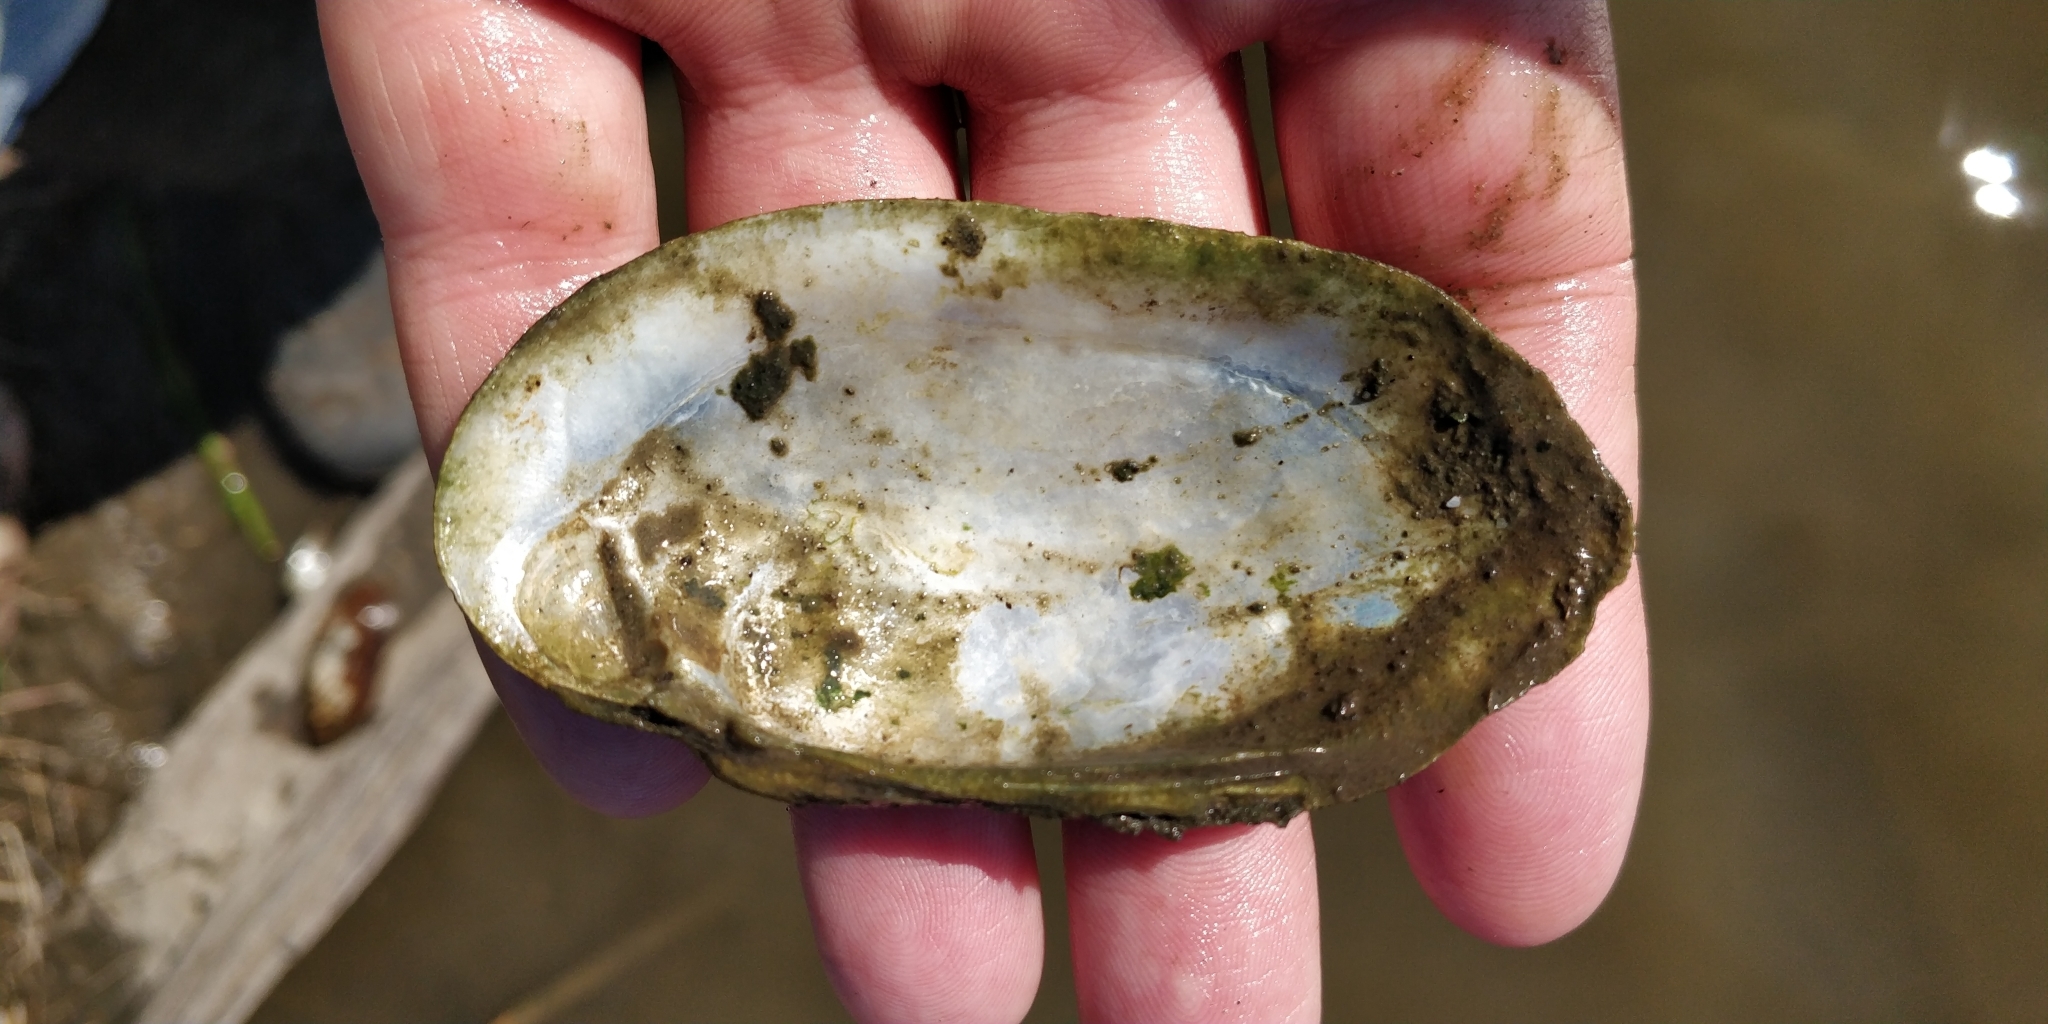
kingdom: Animalia
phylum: Mollusca
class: Bivalvia
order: Unionida
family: Unionidae
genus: Lampsilis
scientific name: Lampsilis siliquoidea
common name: Fatmucket
